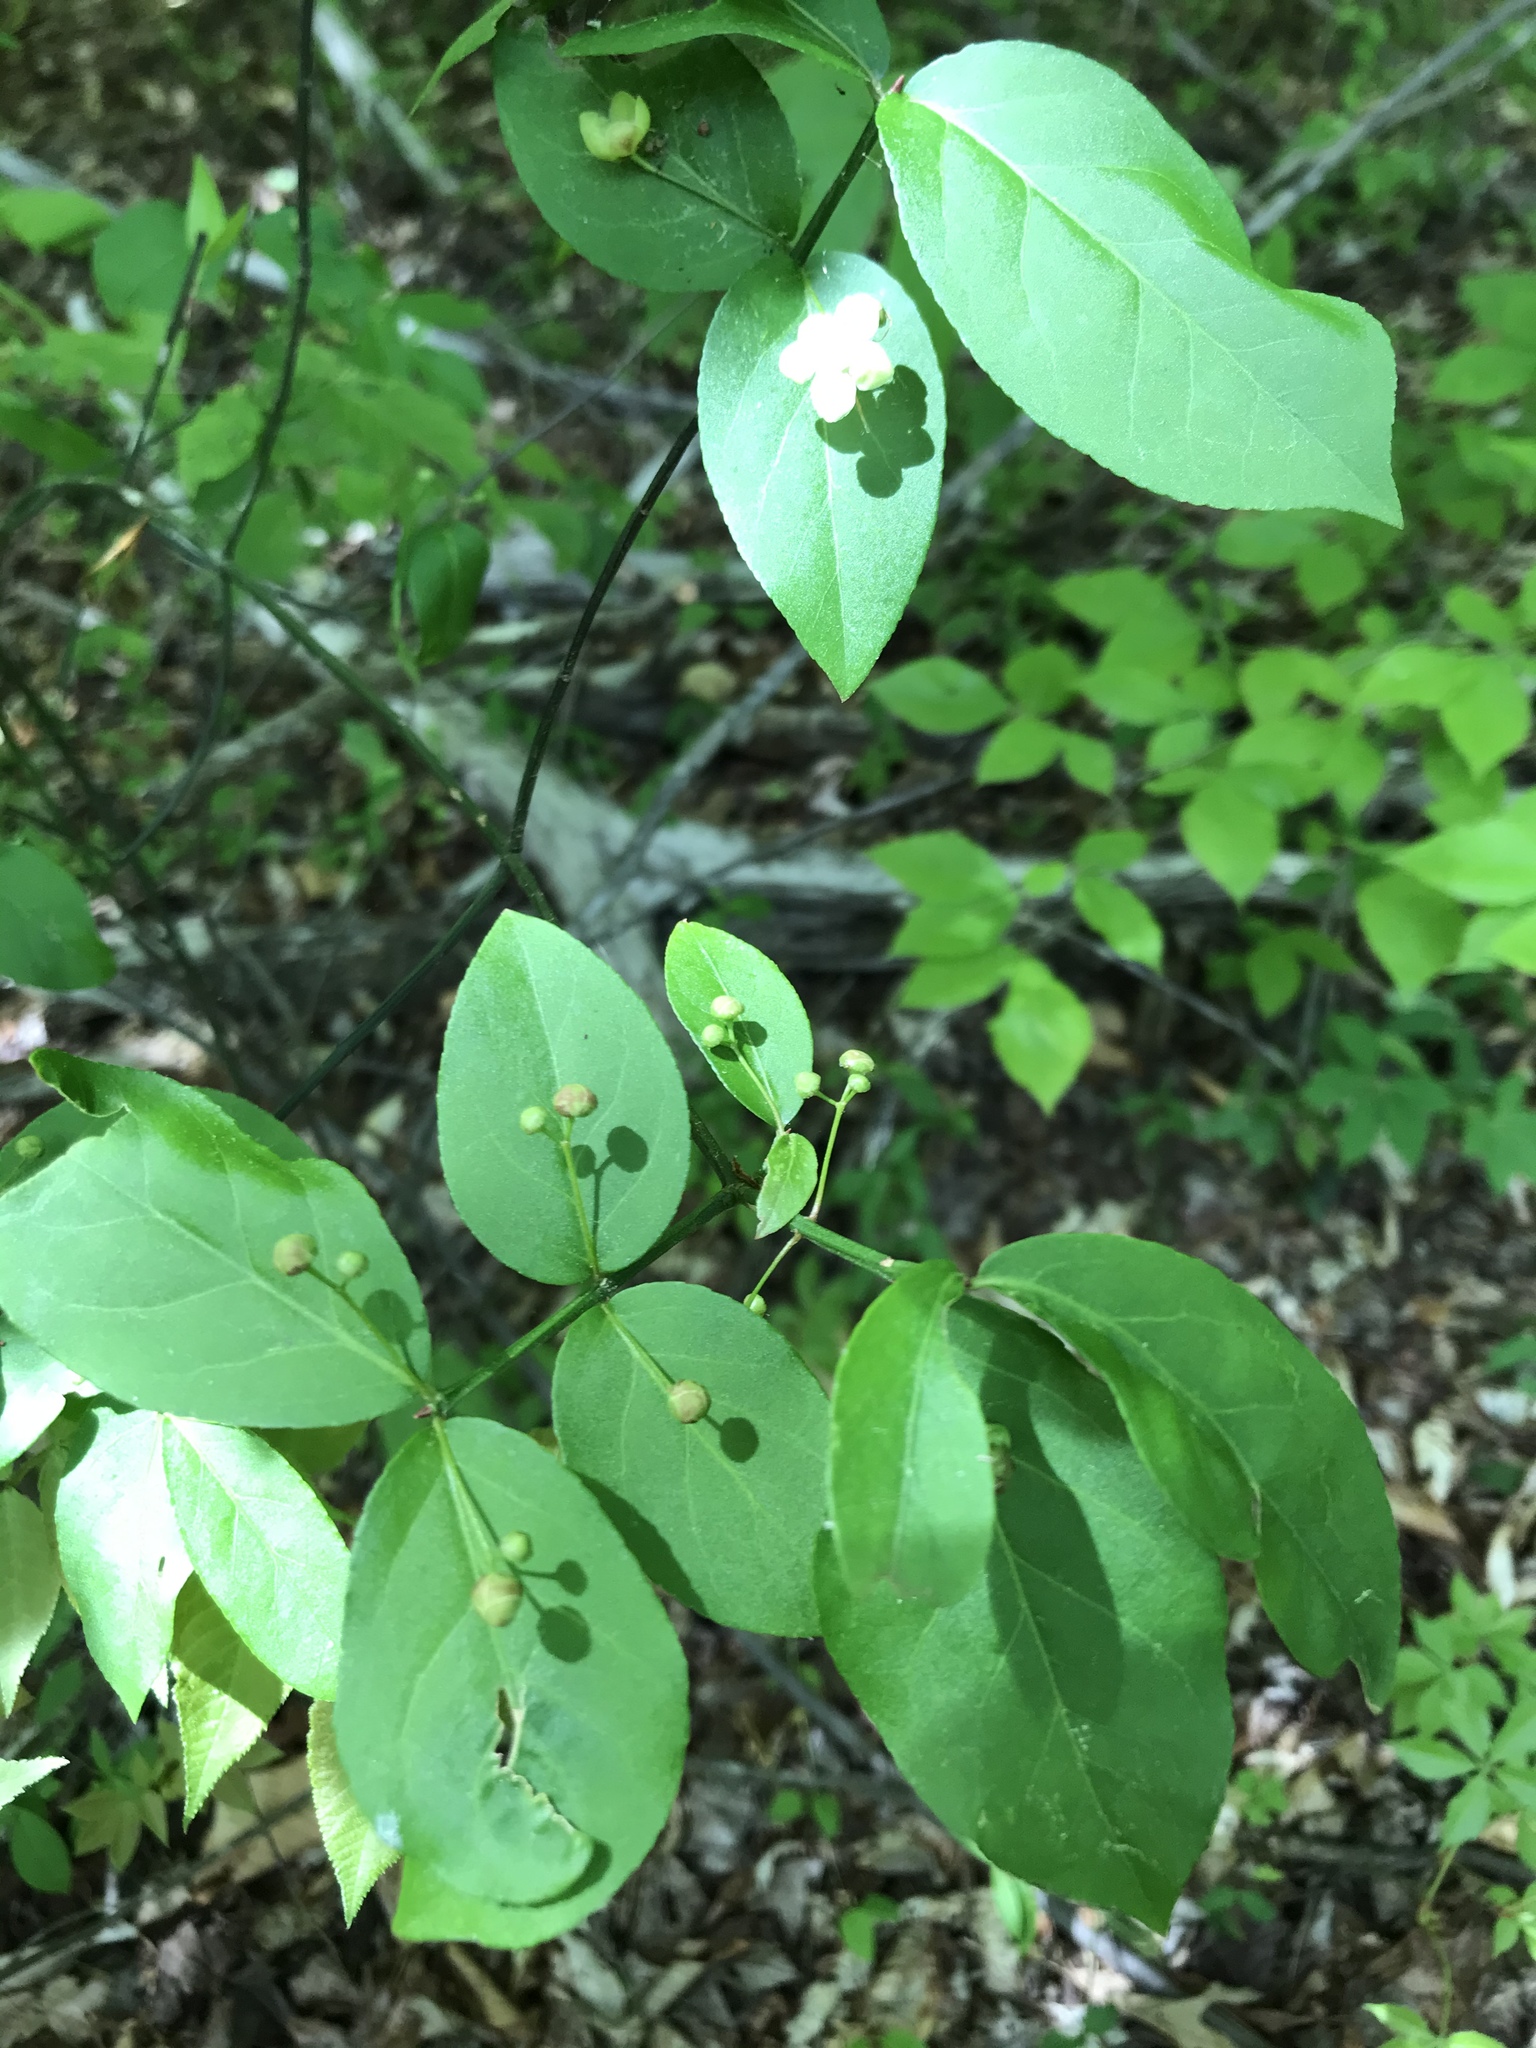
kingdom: Plantae
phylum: Tracheophyta
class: Magnoliopsida
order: Celastrales
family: Celastraceae
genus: Euonymus
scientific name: Euonymus americanus
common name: Bursting-heart
